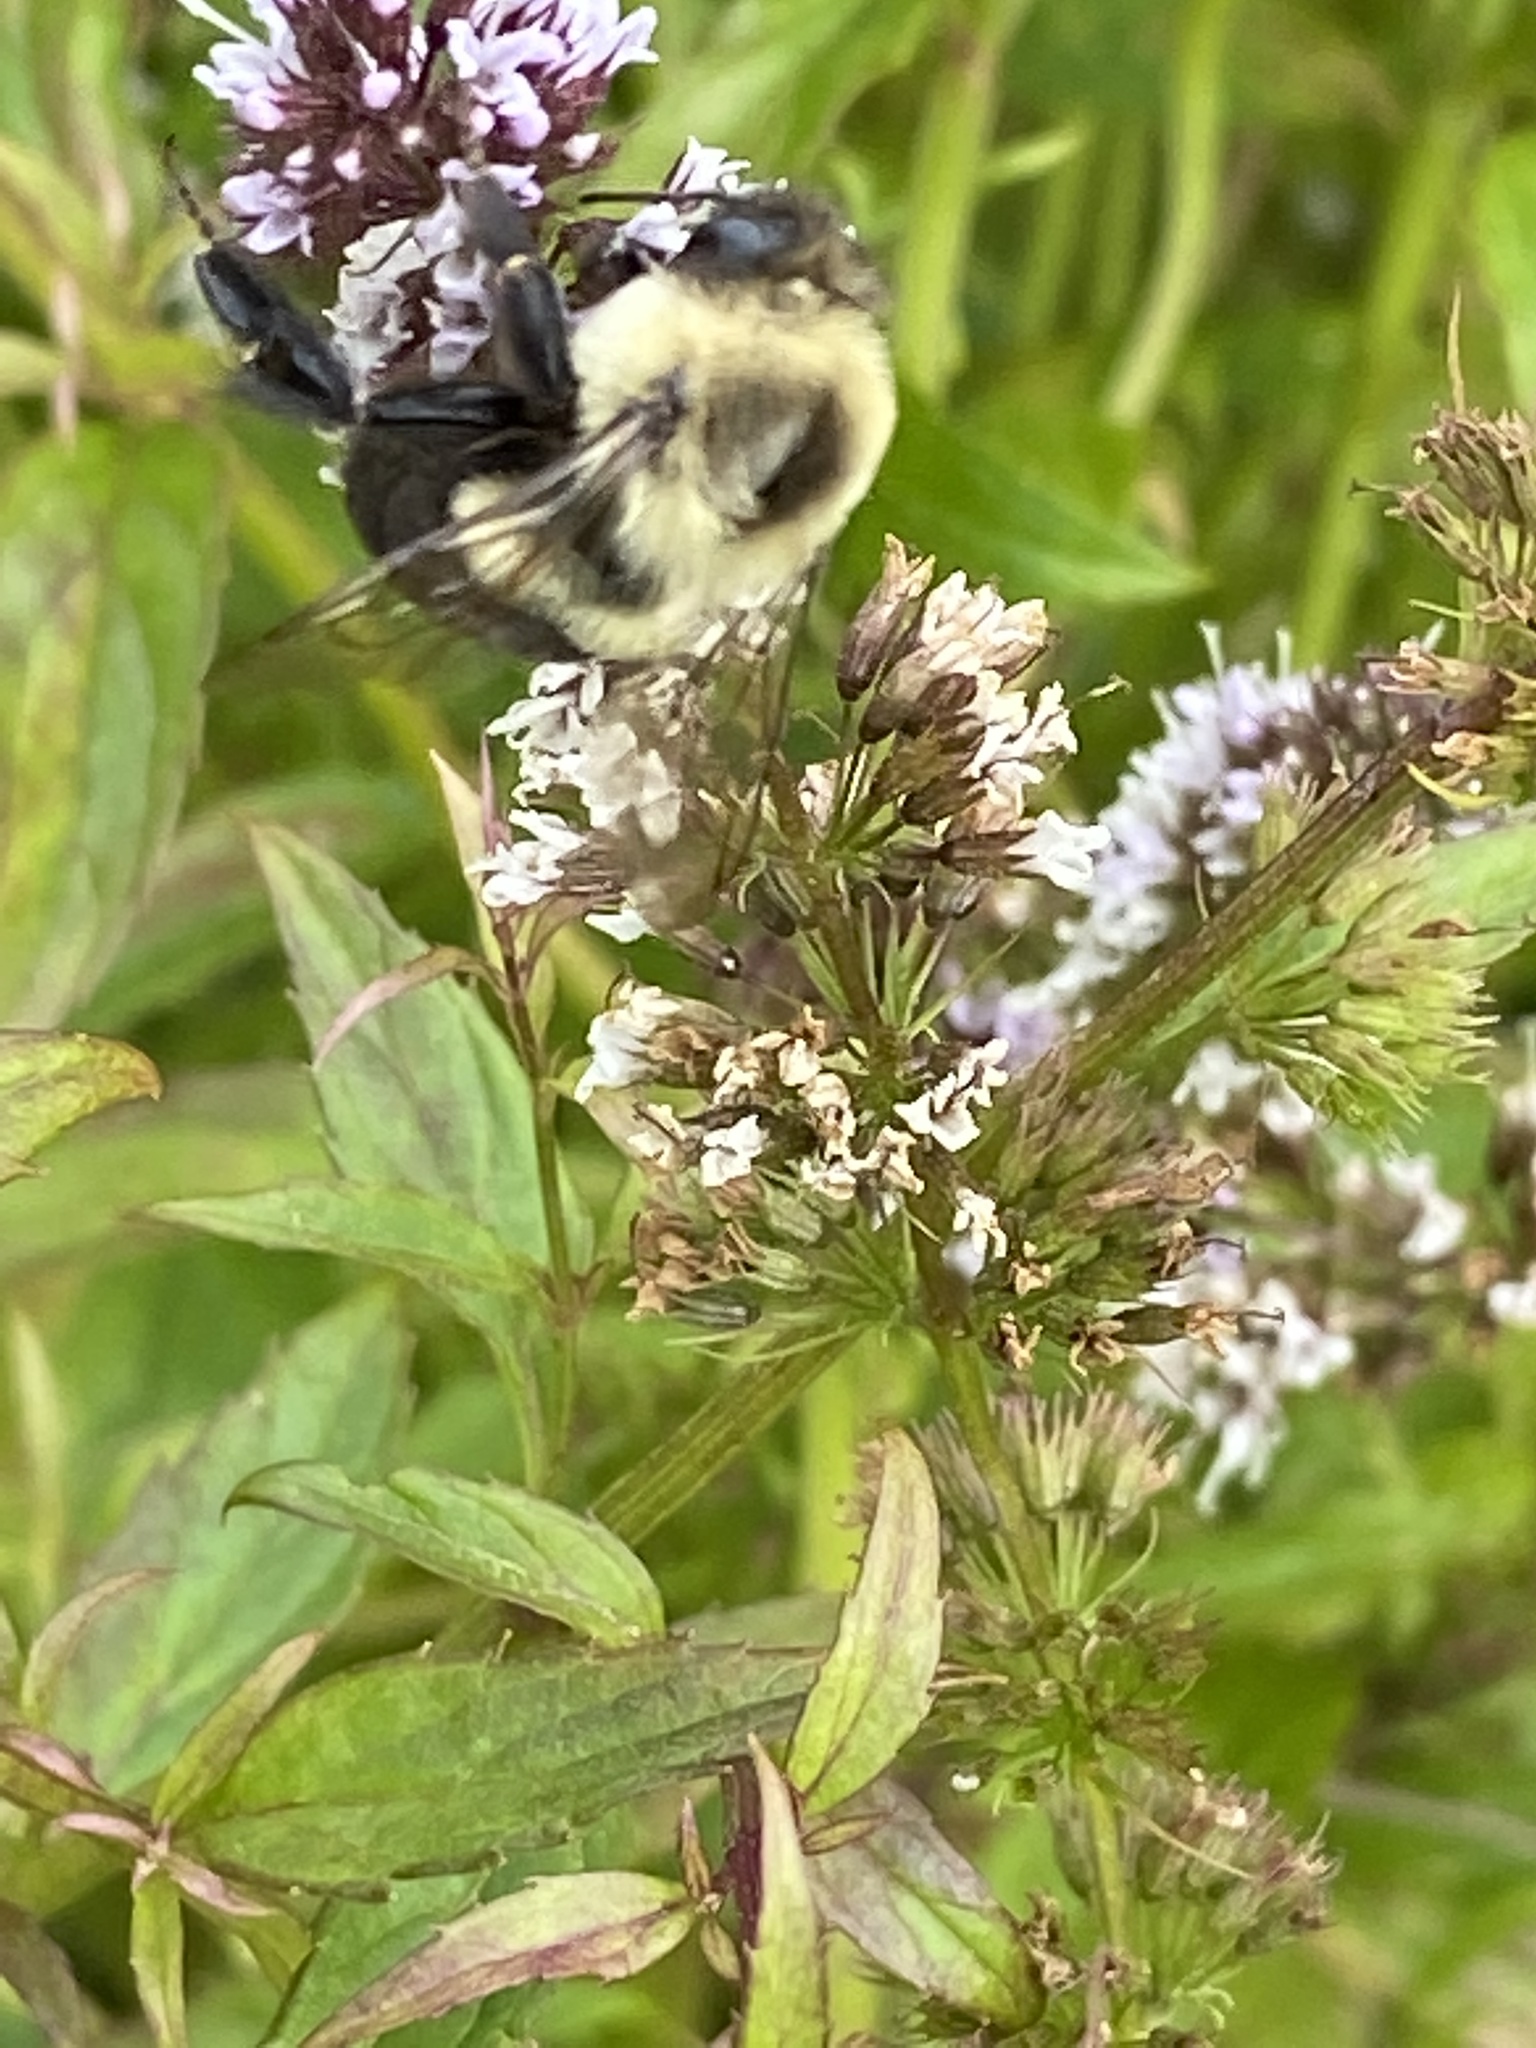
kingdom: Animalia
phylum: Arthropoda
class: Insecta
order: Hymenoptera
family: Apidae
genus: Bombus
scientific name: Bombus impatiens
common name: Common eastern bumble bee
